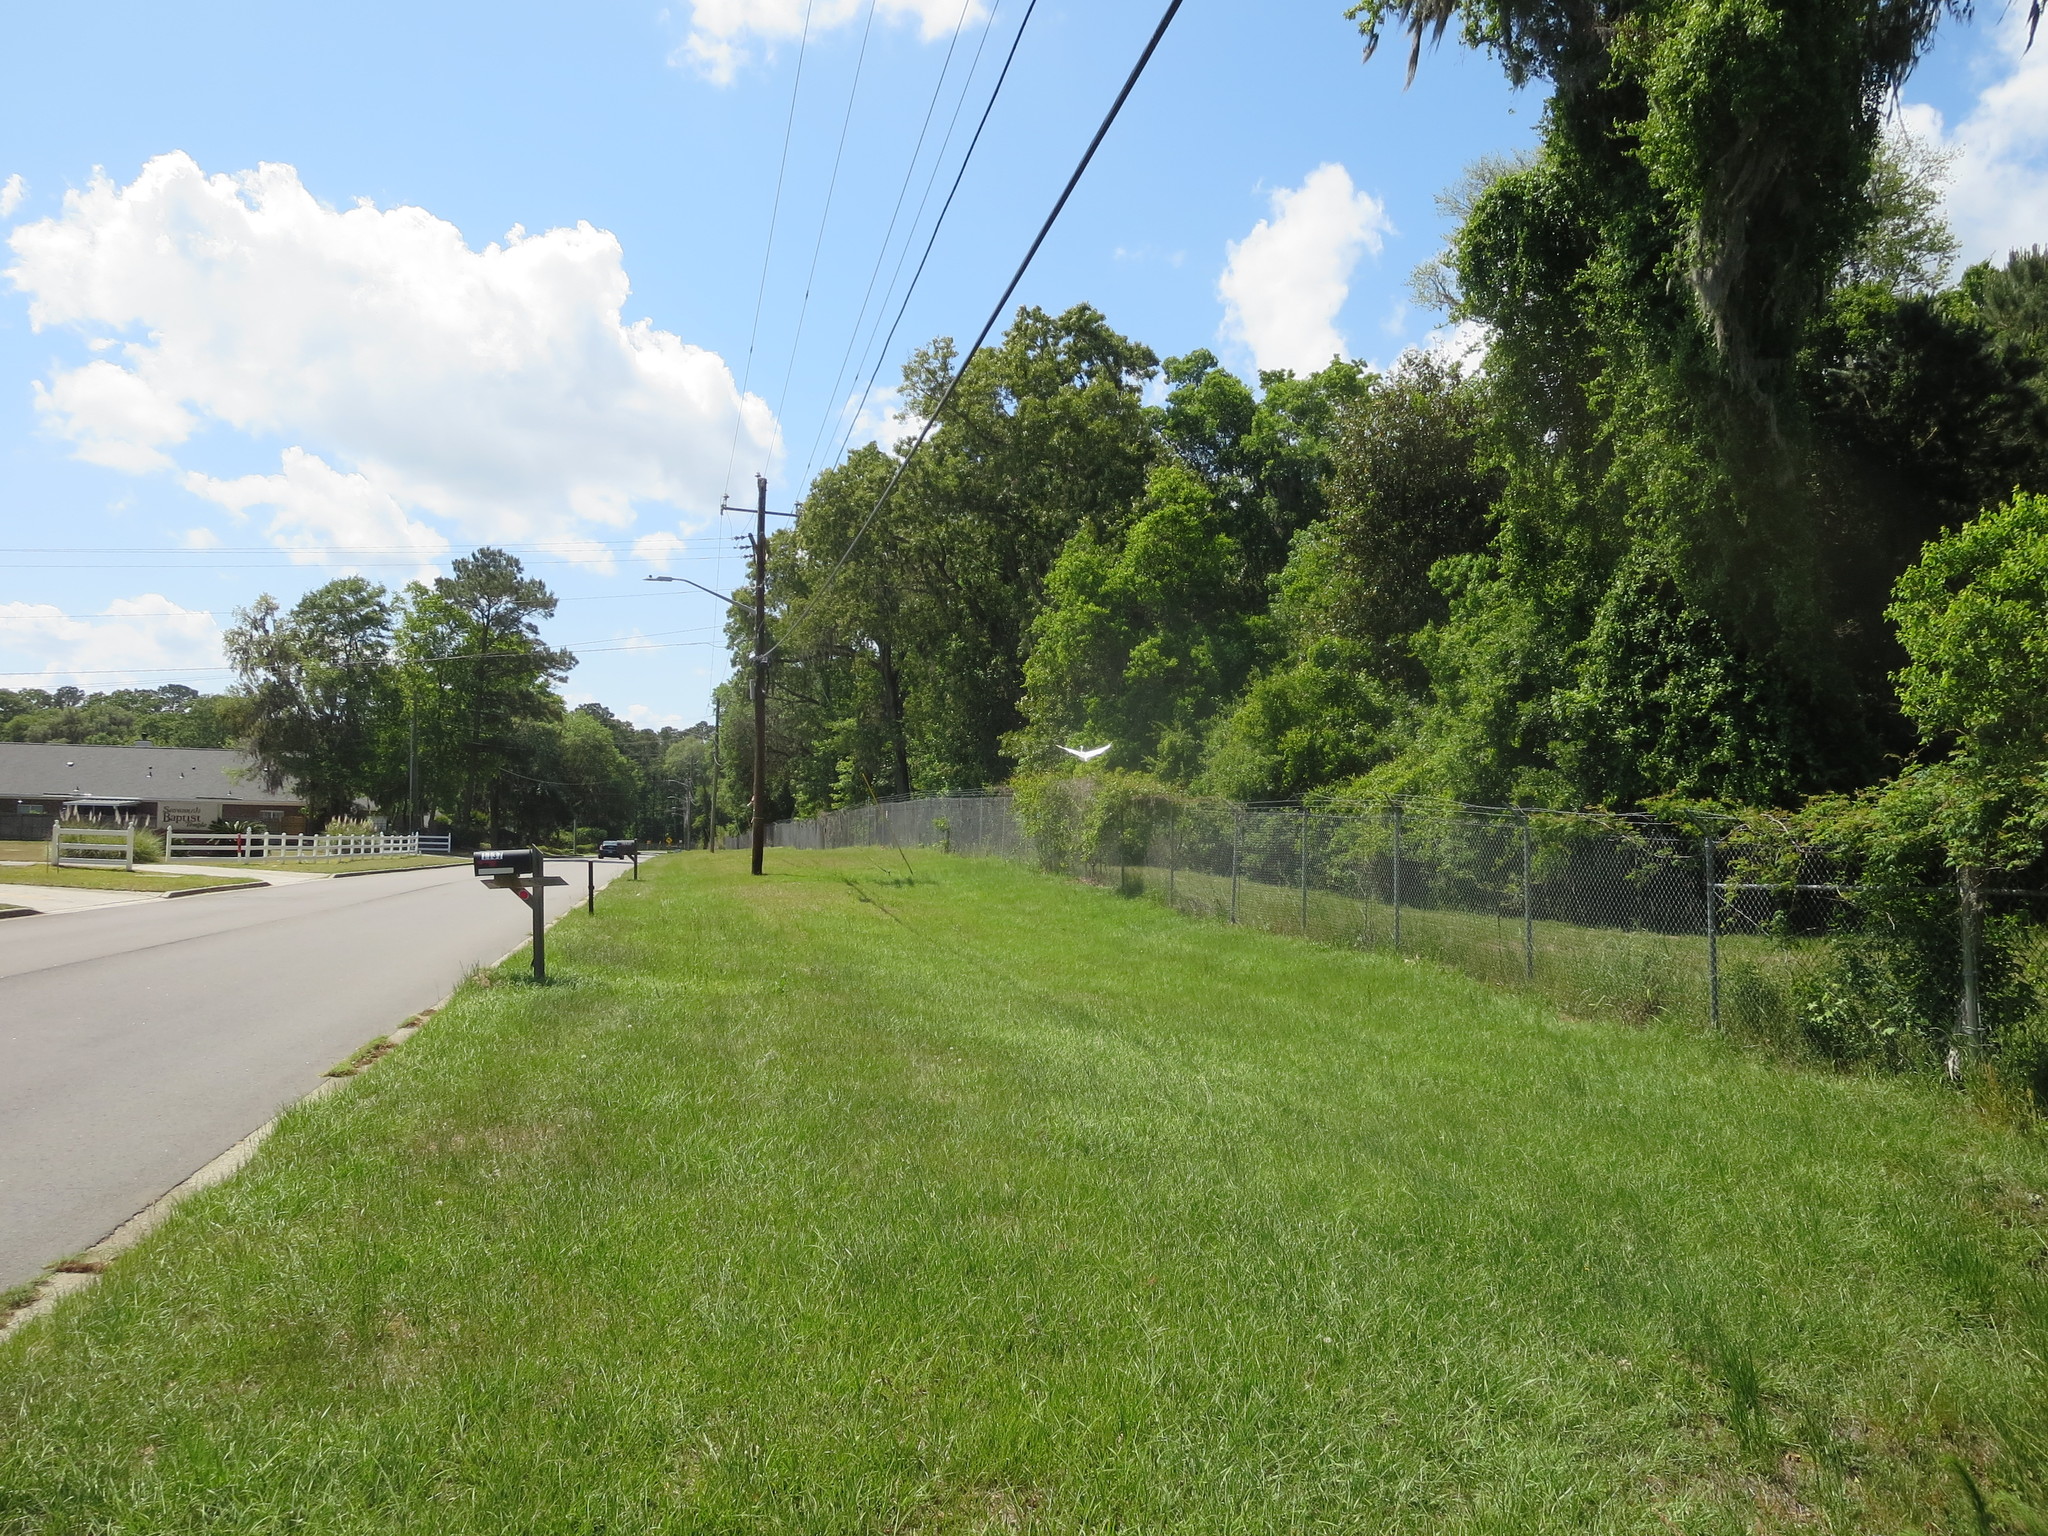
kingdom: Animalia
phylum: Chordata
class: Aves
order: Pelecaniformes
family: Ardeidae
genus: Ardea
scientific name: Ardea alba
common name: Great egret
